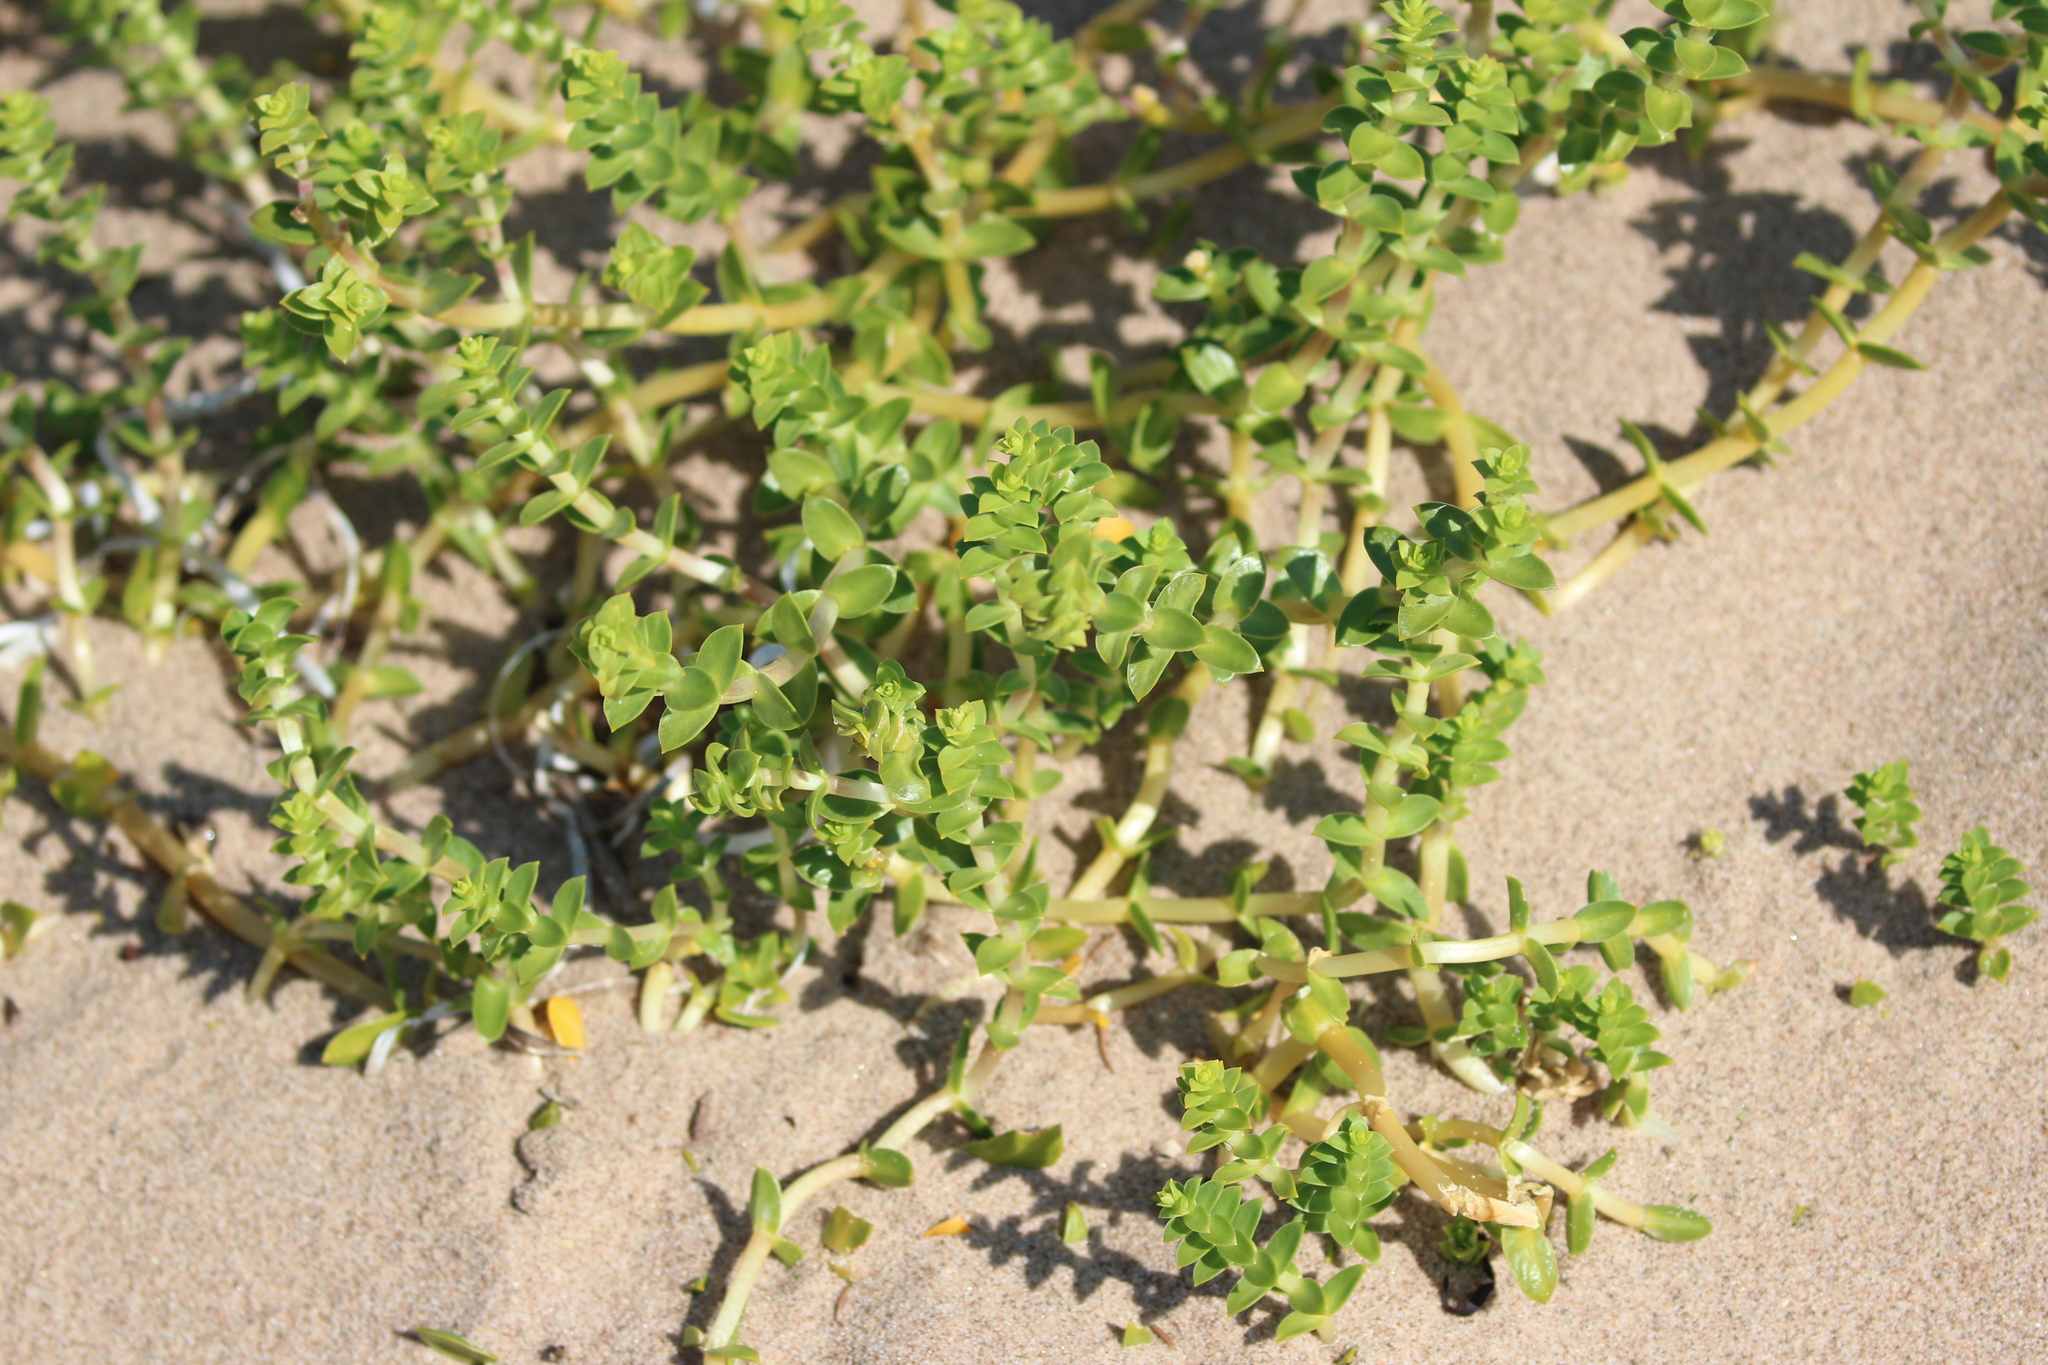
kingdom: Plantae
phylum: Tracheophyta
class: Magnoliopsida
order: Caryophyllales
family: Caryophyllaceae
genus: Honckenya
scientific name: Honckenya peploides
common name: Sea sandwort
